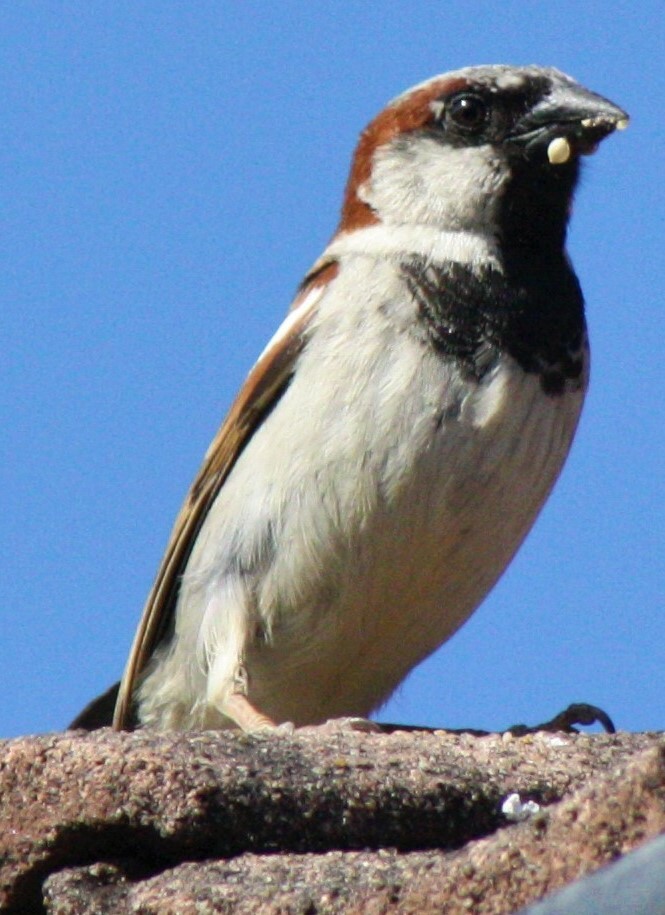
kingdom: Animalia
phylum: Chordata
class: Aves
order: Passeriformes
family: Passeridae
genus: Passer
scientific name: Passer domesticus
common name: House sparrow
